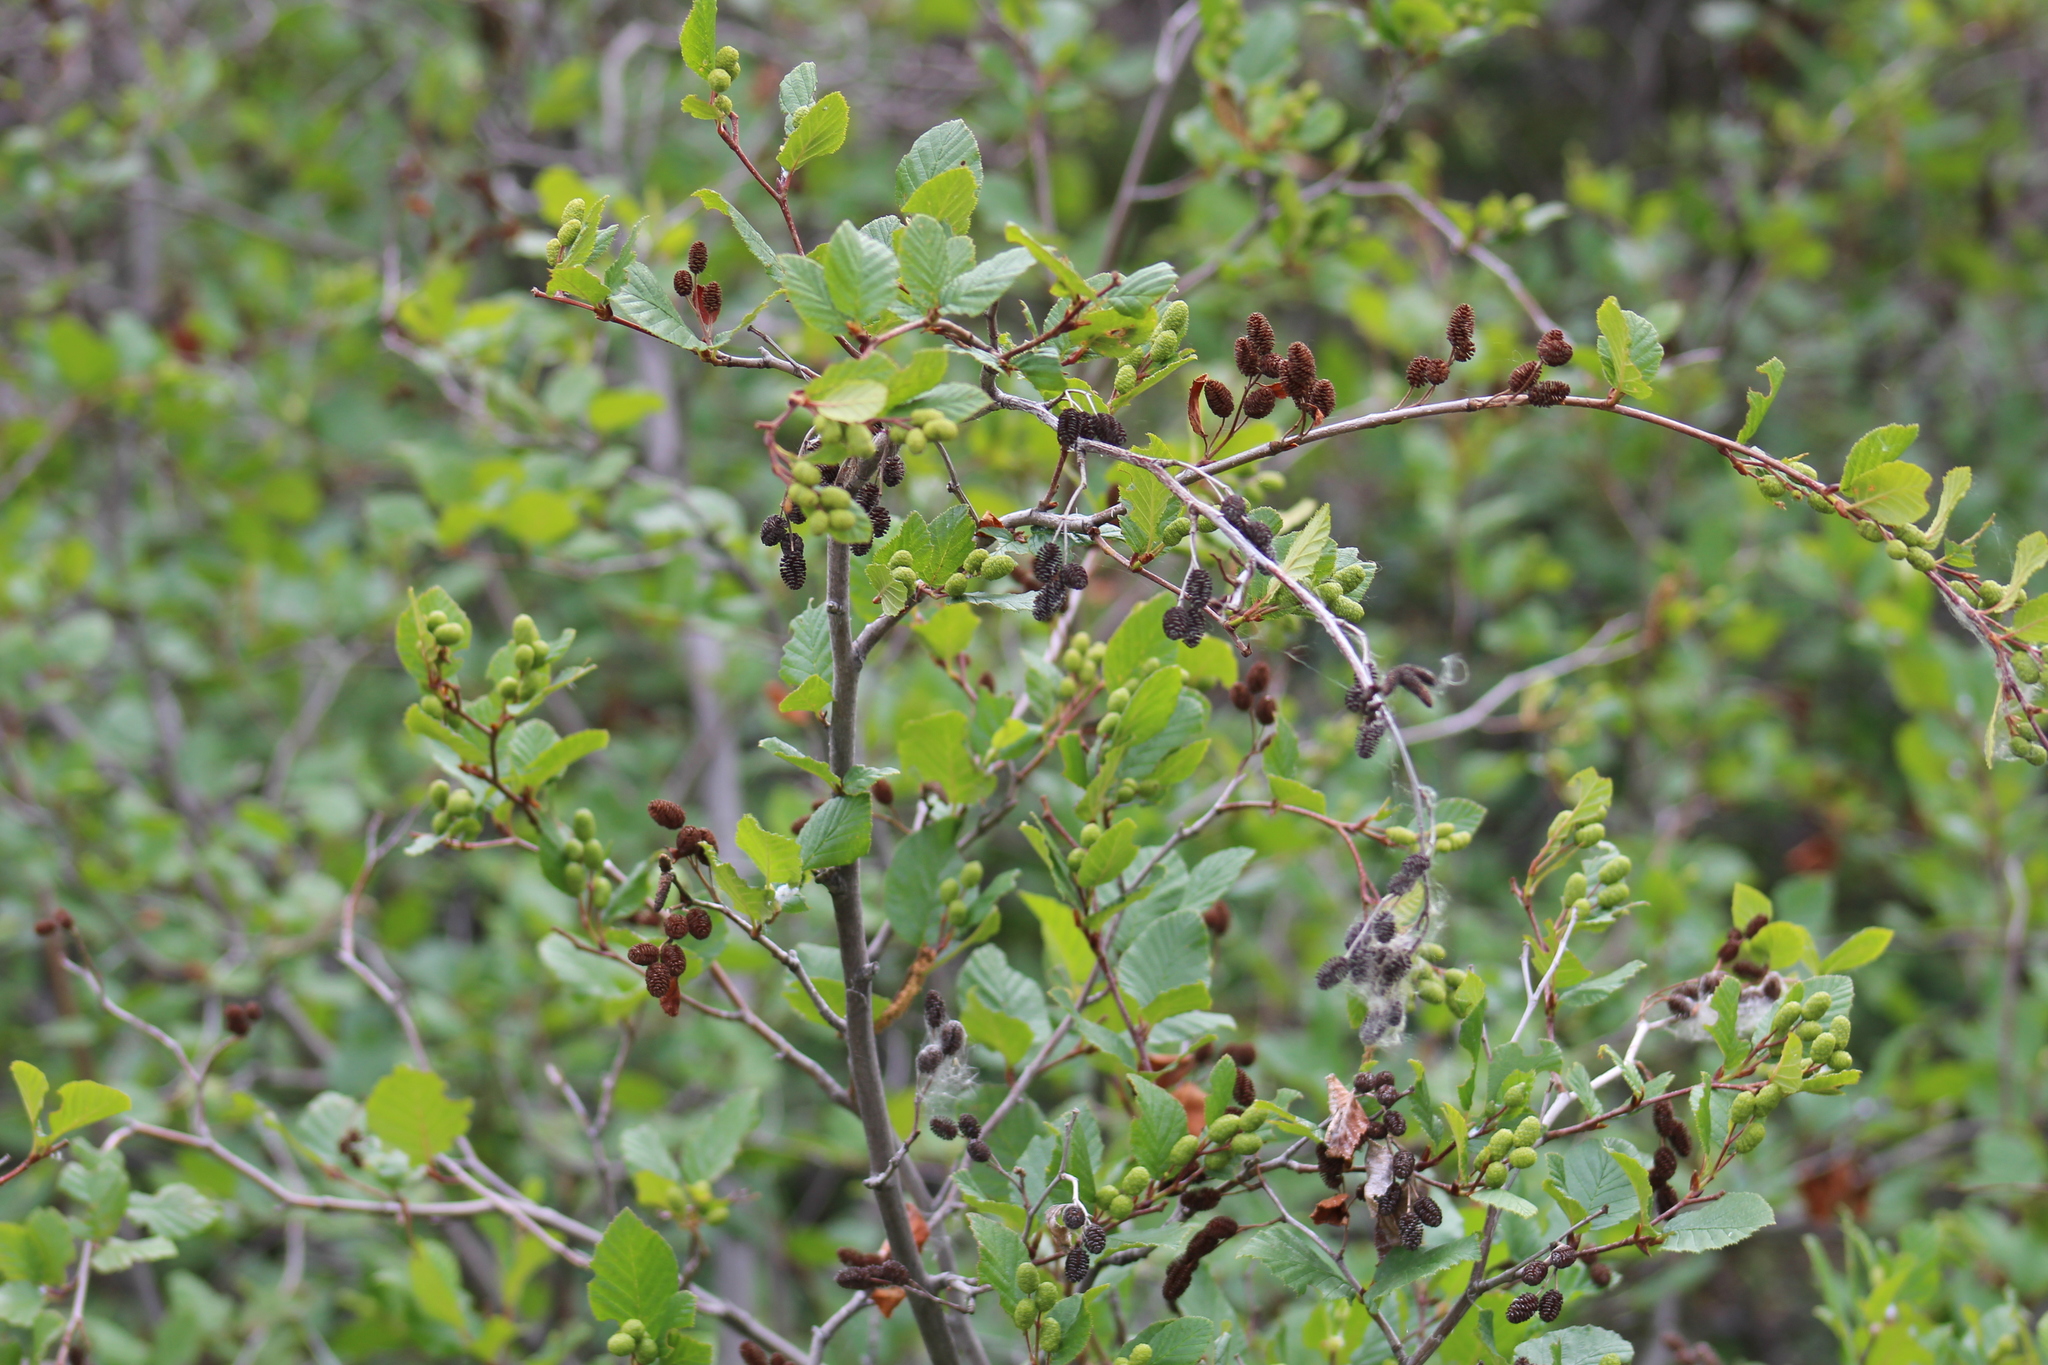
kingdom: Plantae
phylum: Tracheophyta
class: Magnoliopsida
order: Fagales
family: Betulaceae
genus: Alnus
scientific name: Alnus alnobetula
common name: Green alder
